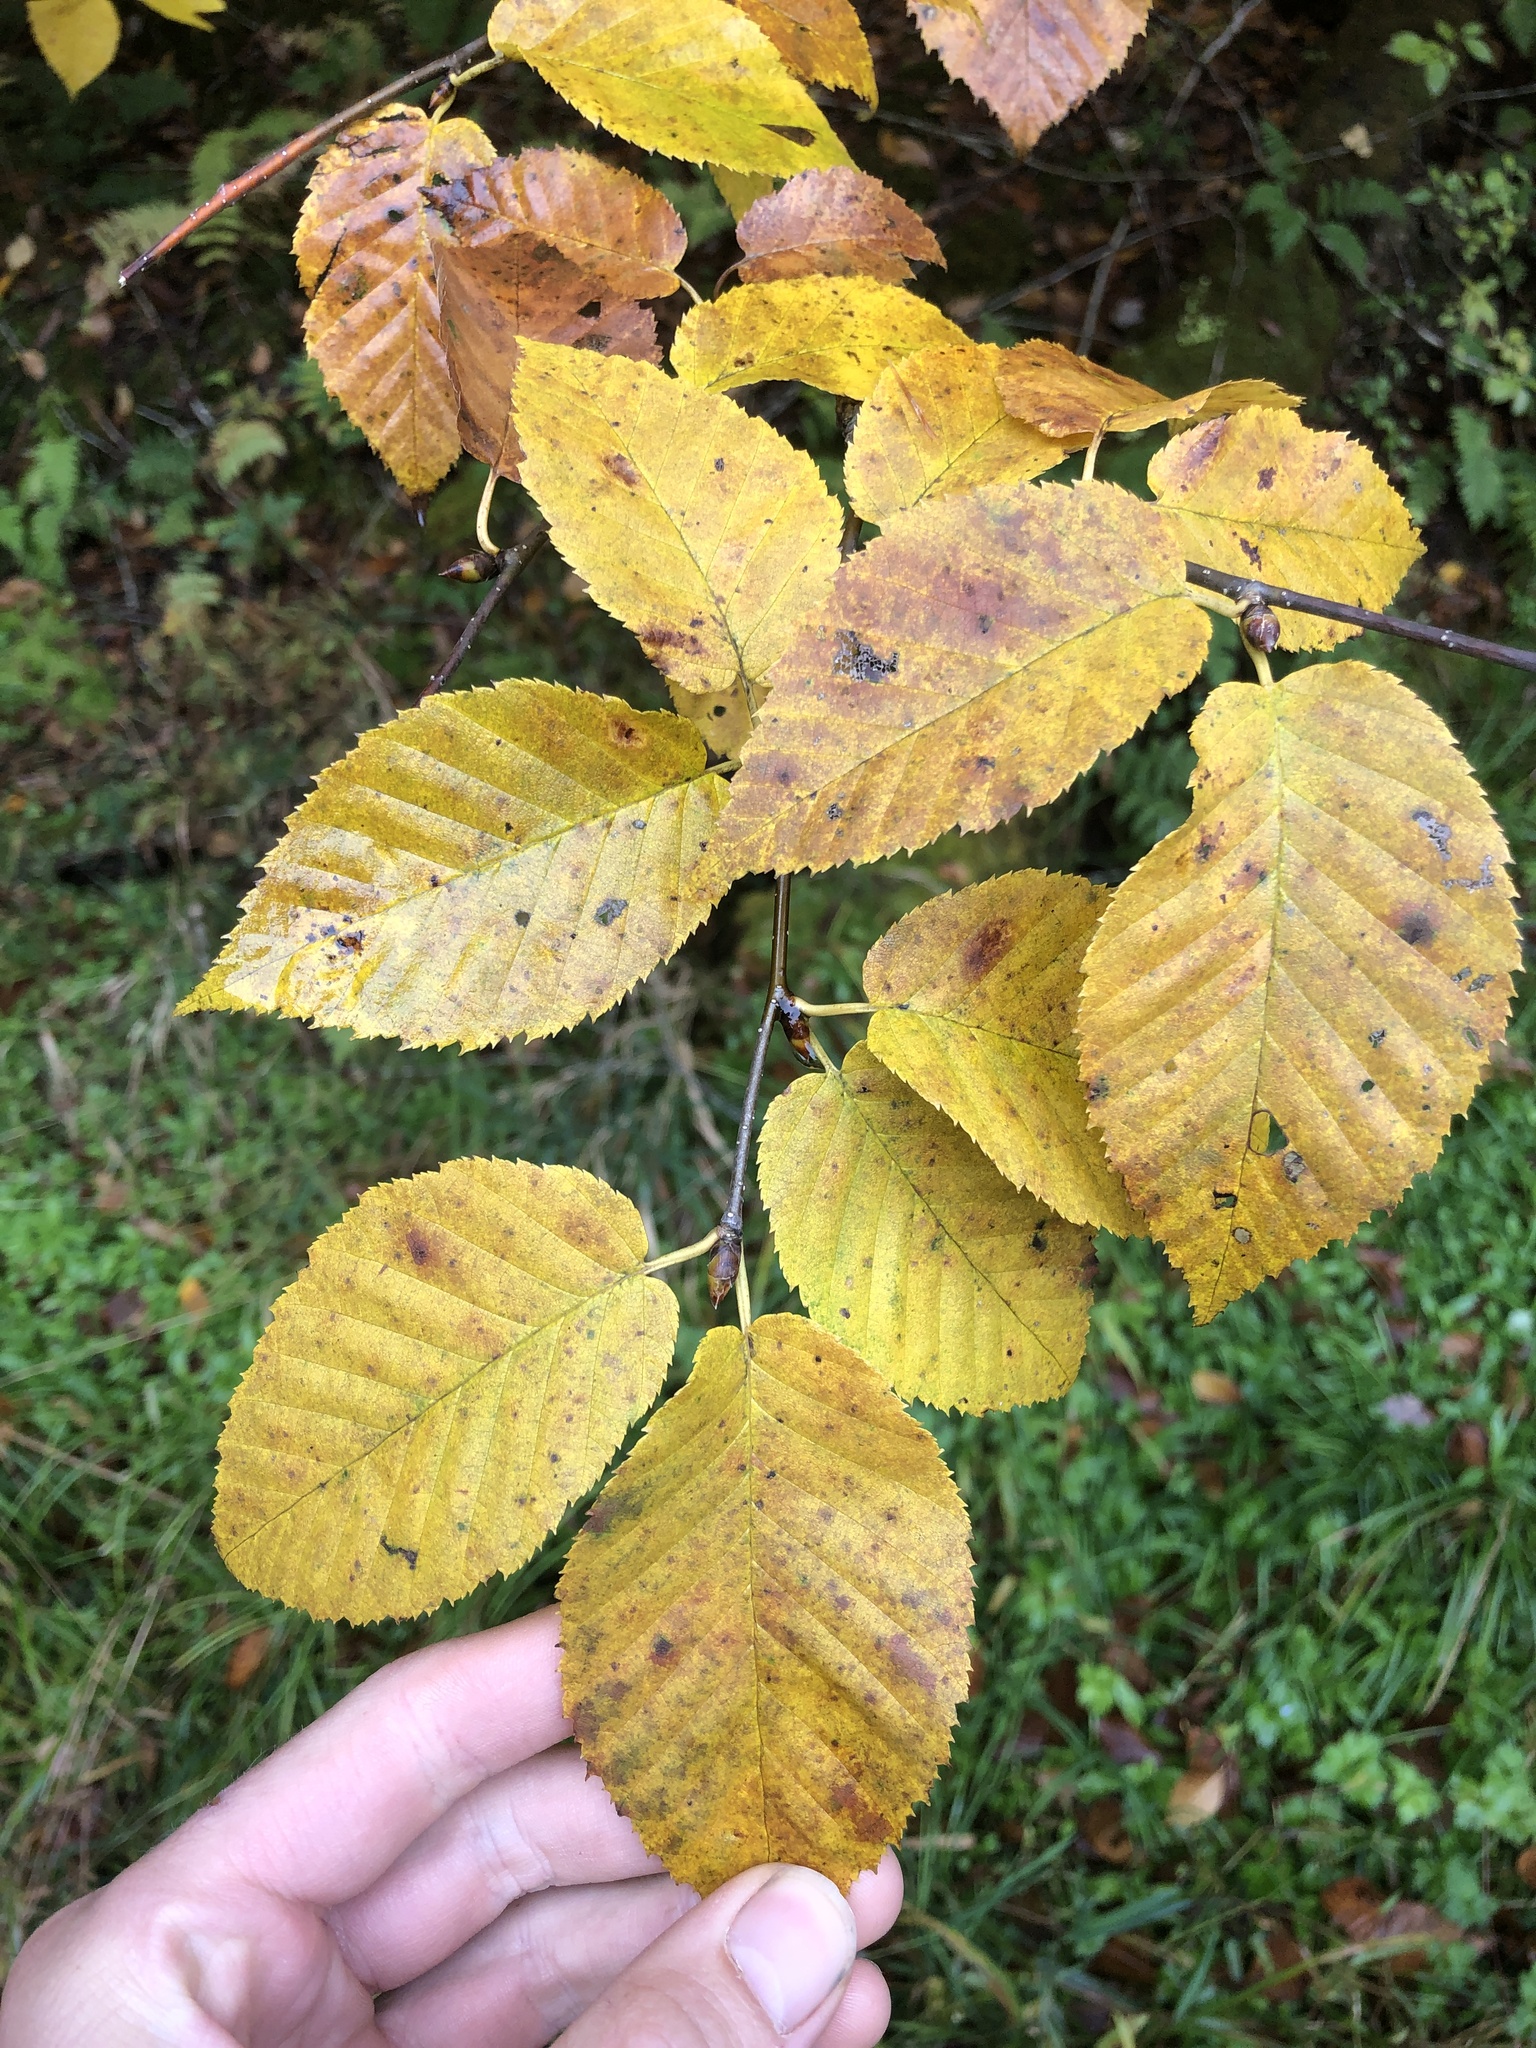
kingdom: Plantae
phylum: Tracheophyta
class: Magnoliopsida
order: Fagales
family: Betulaceae
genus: Betula
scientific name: Betula alleghaniensis
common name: Yellow birch
